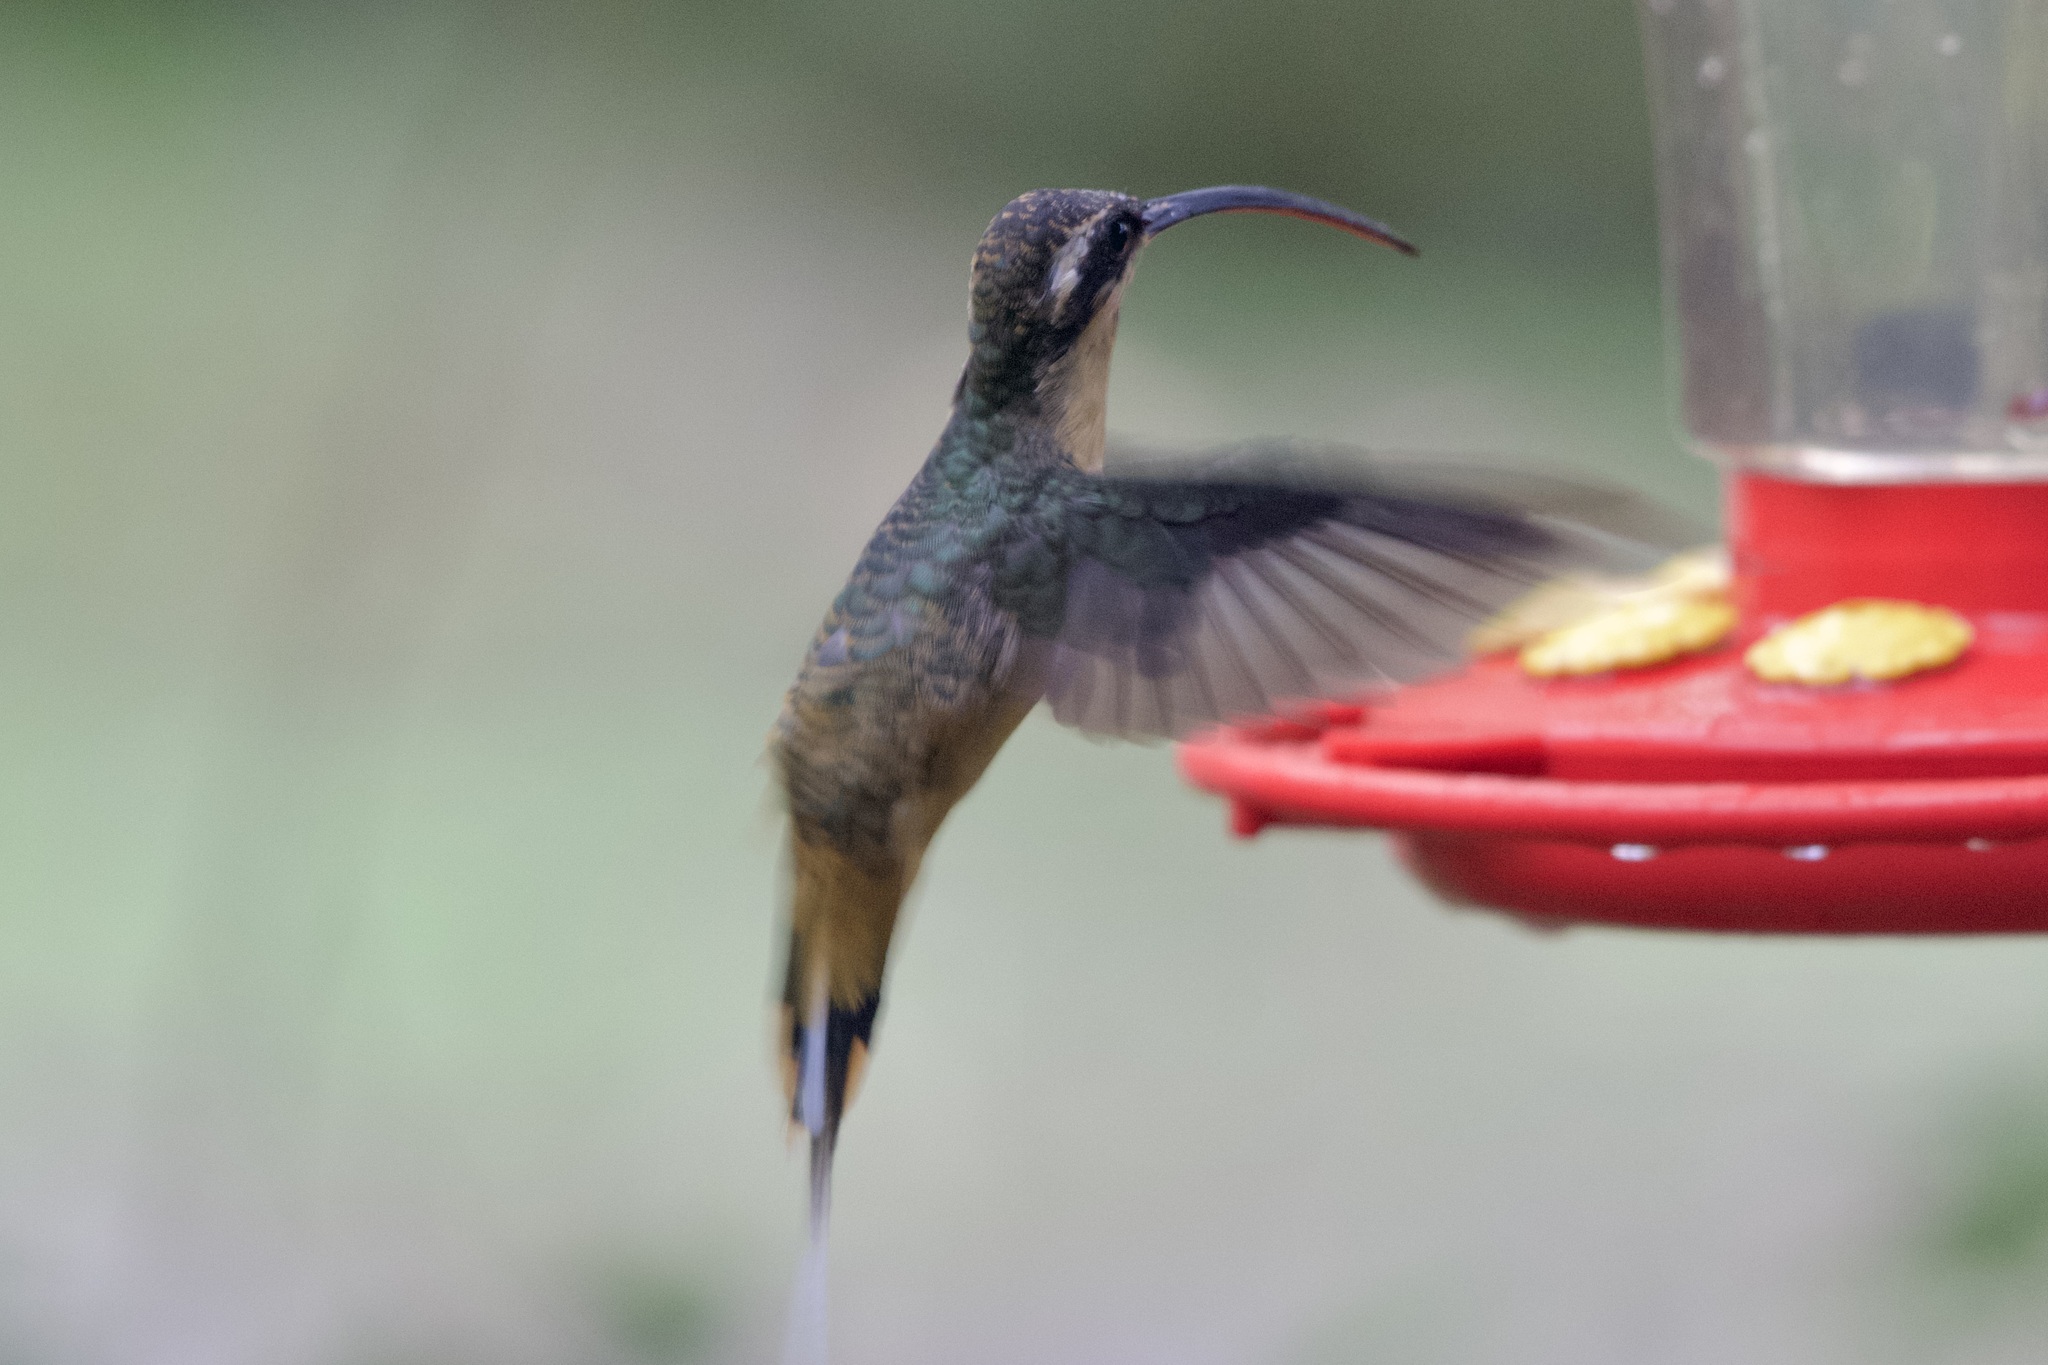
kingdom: Animalia
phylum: Chordata
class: Aves
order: Apodiformes
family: Trochilidae
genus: Phaethornis
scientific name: Phaethornis syrmatophorus
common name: Tawny-bellied hermit
